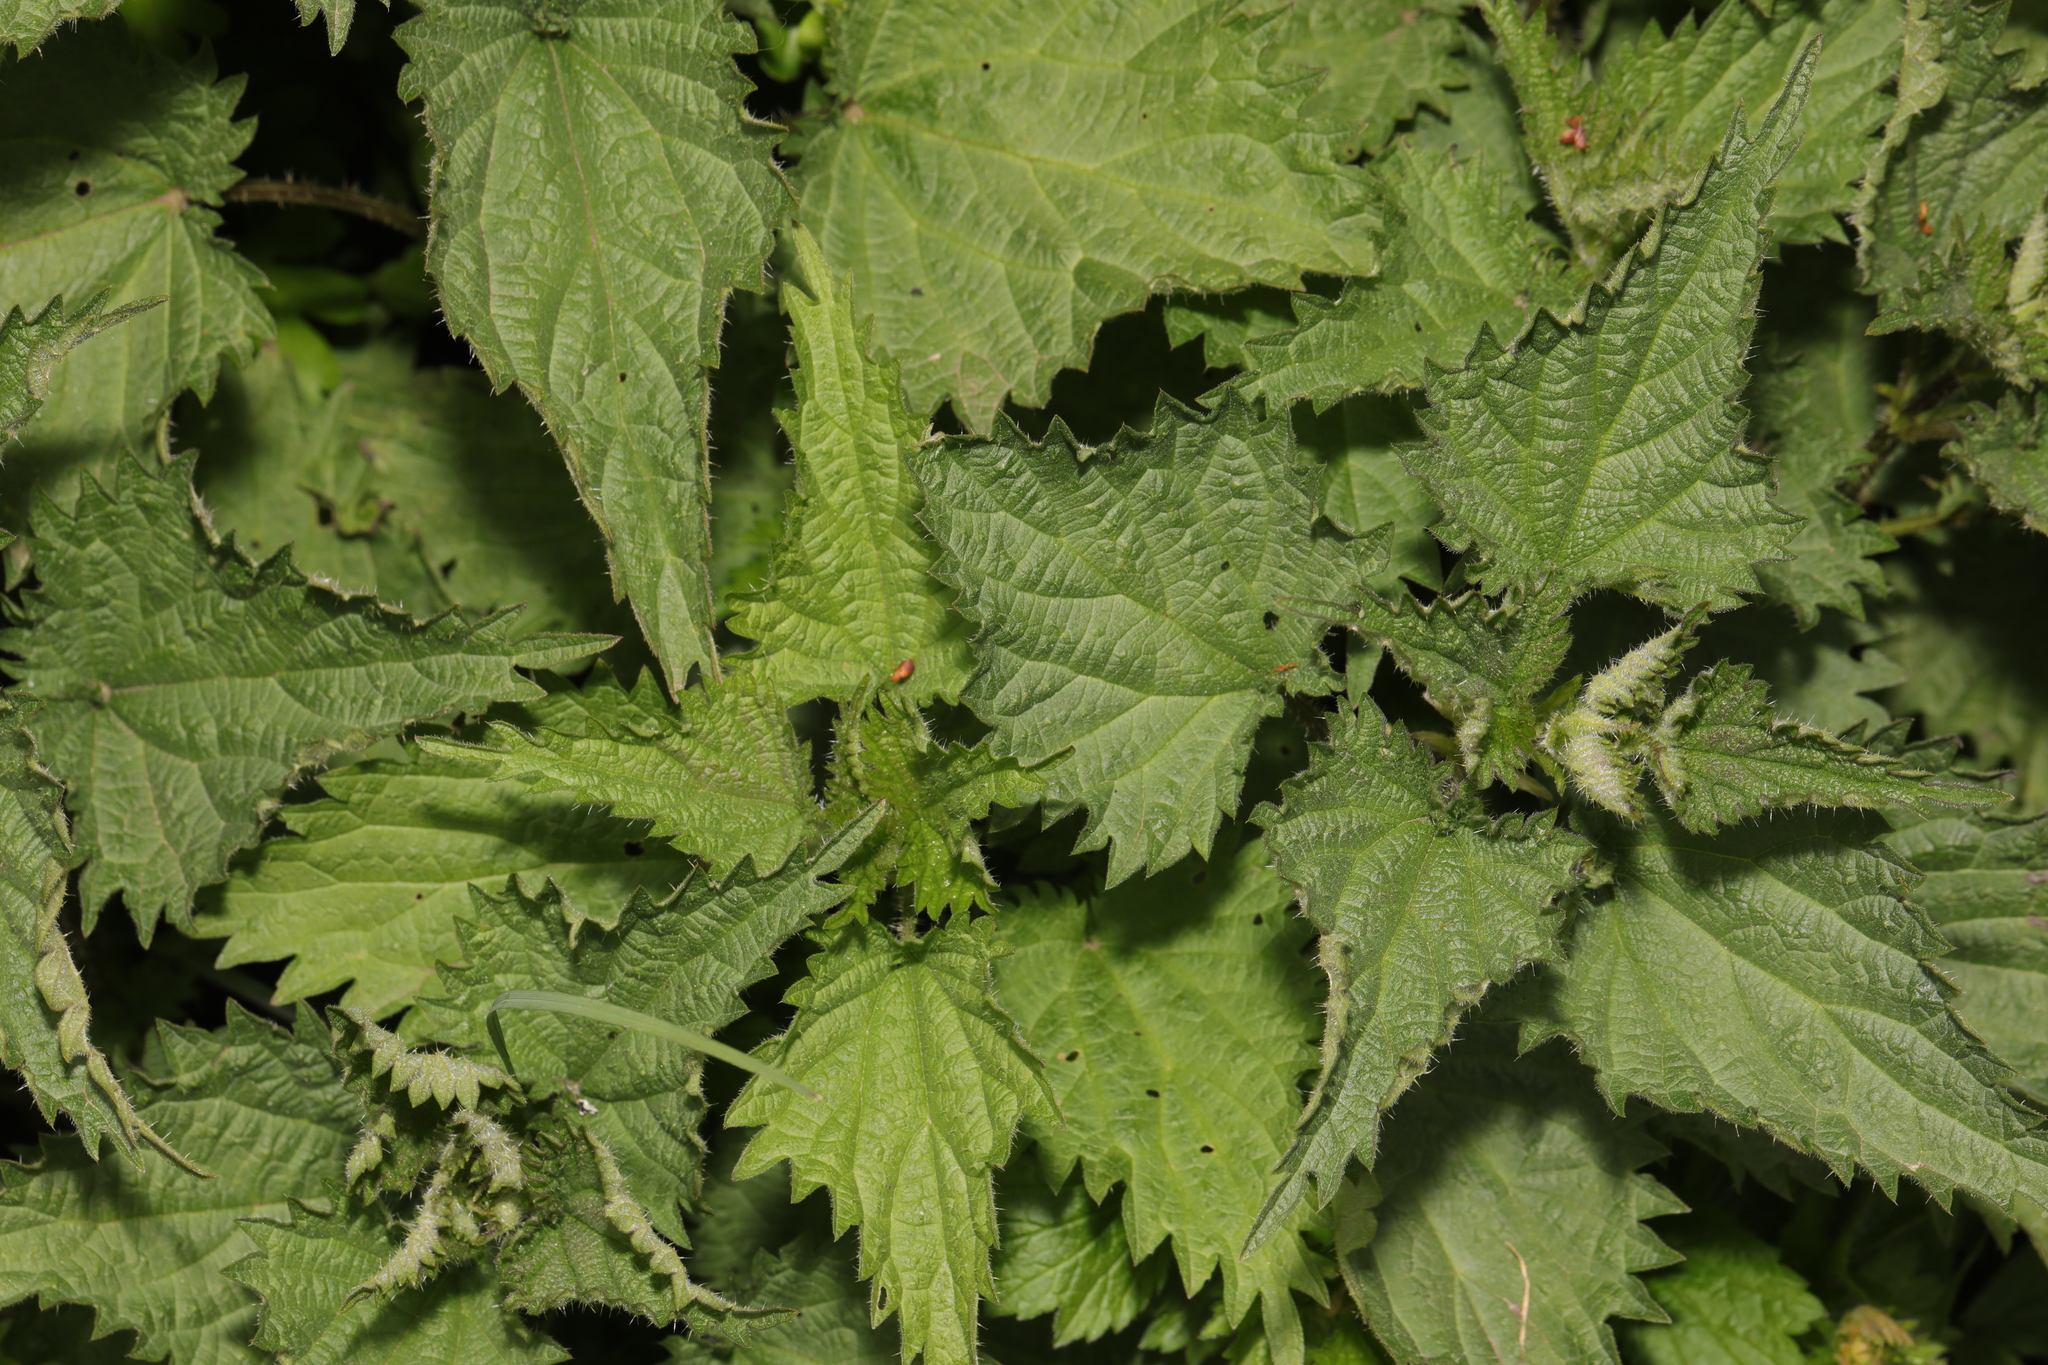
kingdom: Plantae
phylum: Tracheophyta
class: Magnoliopsida
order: Rosales
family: Urticaceae
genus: Urtica
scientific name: Urtica dioica
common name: Common nettle
